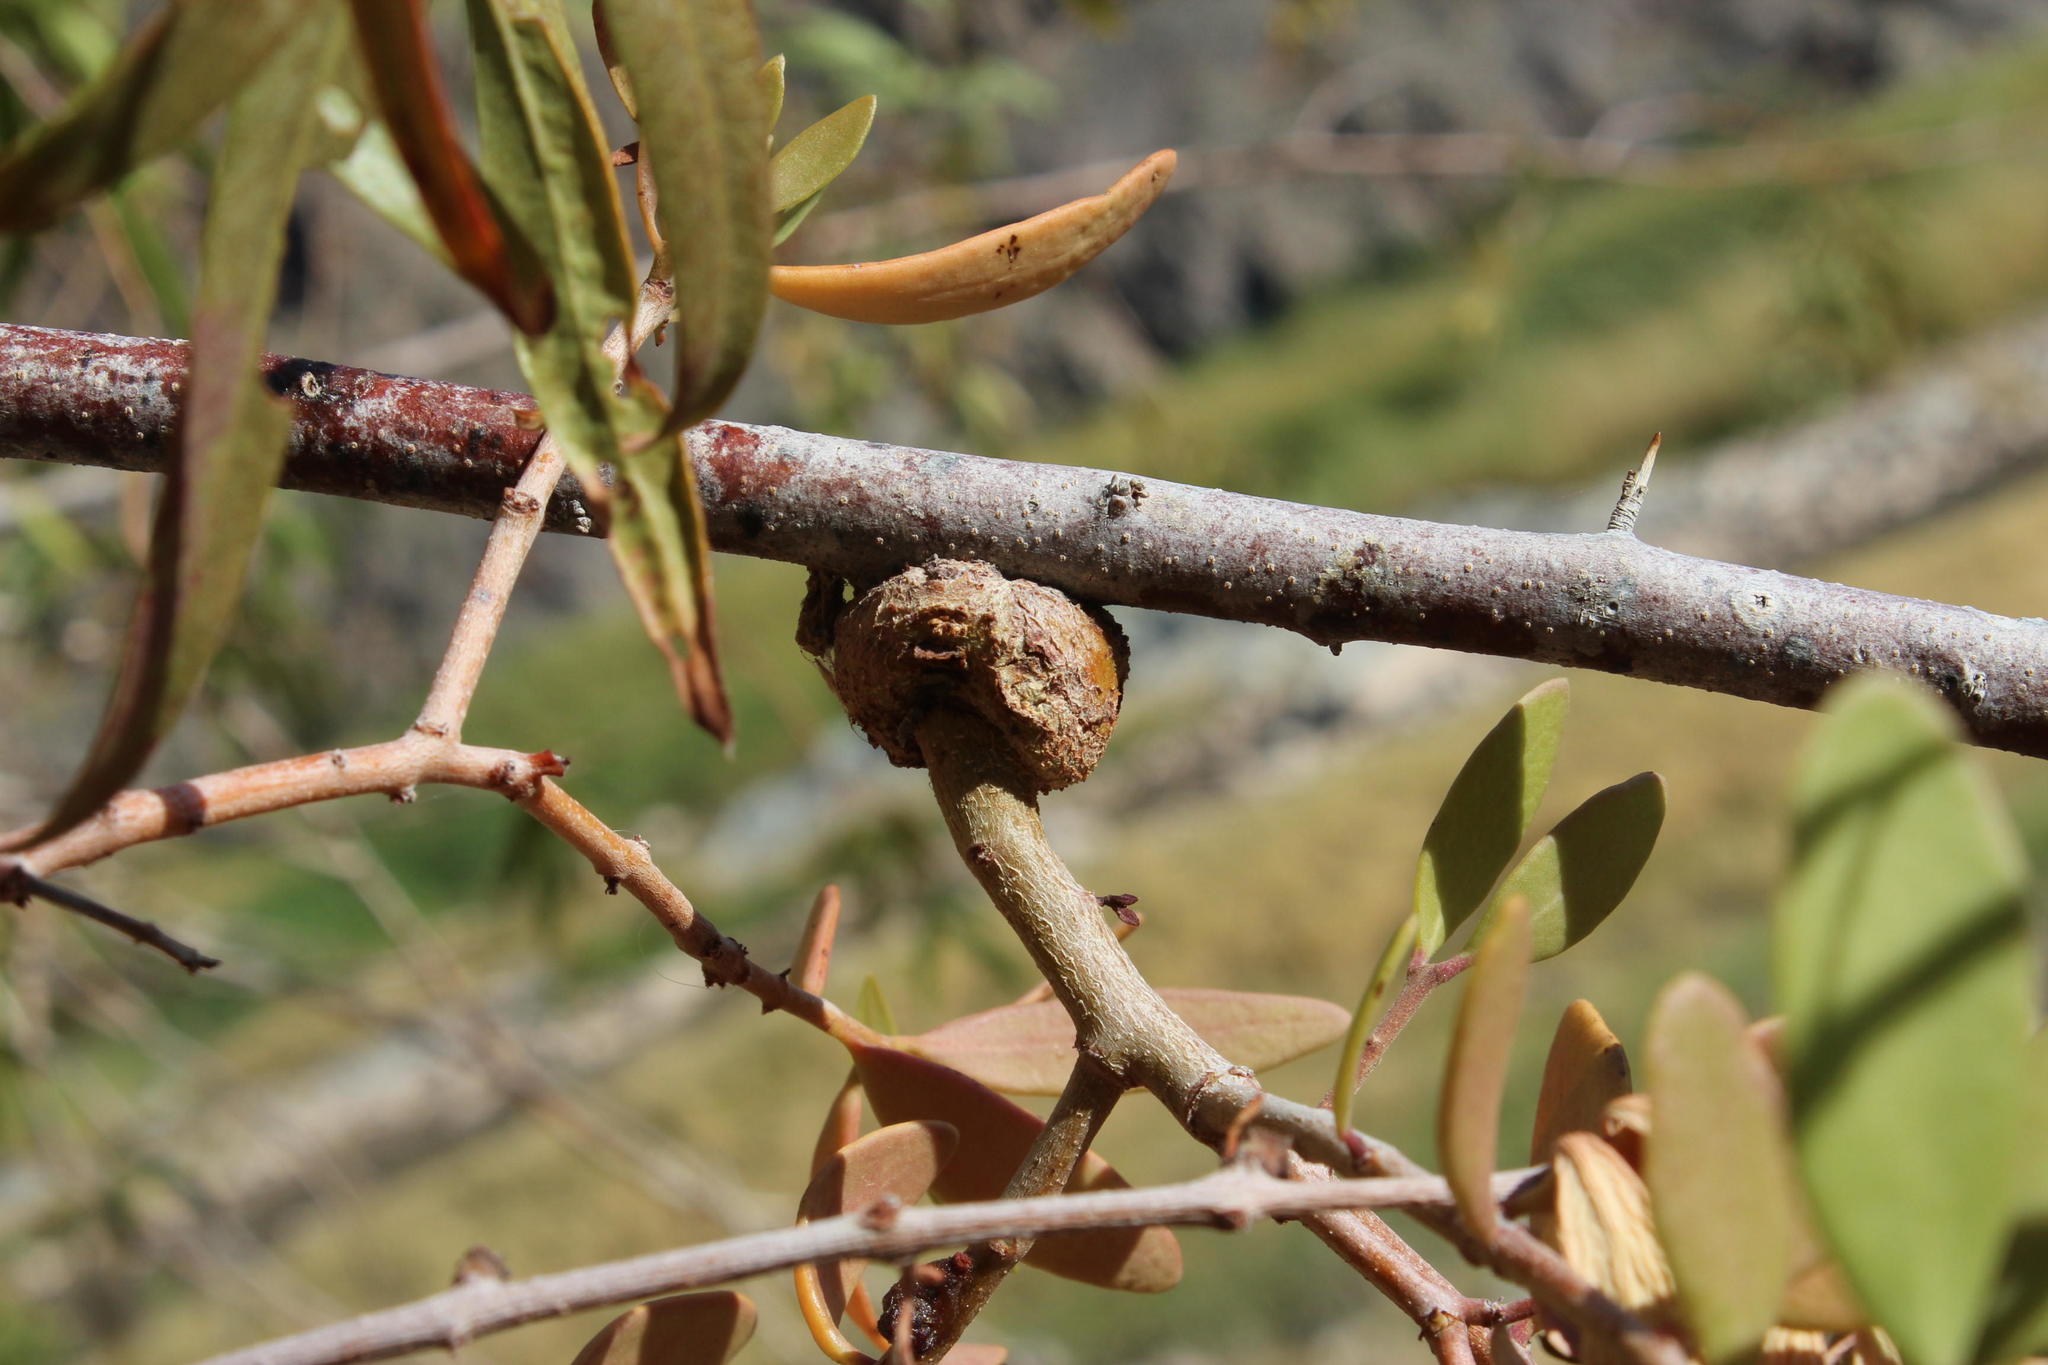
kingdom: Plantae
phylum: Tracheophyta
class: Magnoliopsida
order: Santalales
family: Loranthaceae
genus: Tapinanthus
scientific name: Tapinanthus oleifolius
